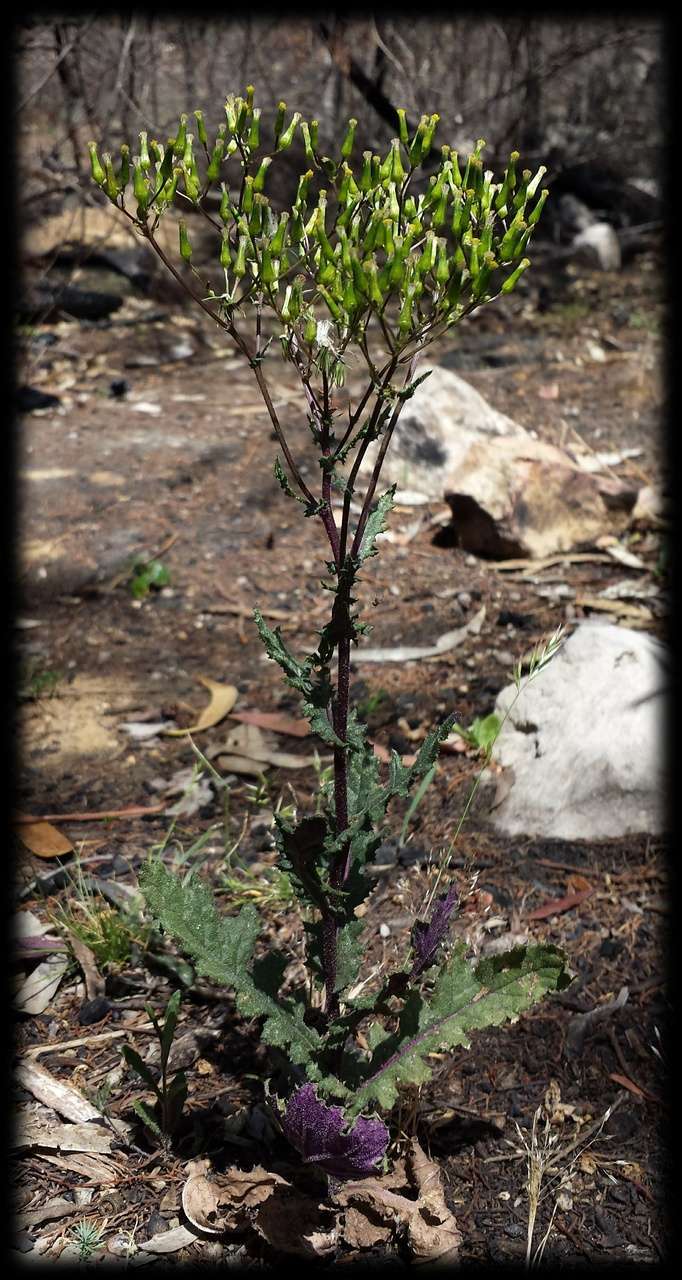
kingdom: Plantae
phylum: Tracheophyta
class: Magnoliopsida
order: Asterales
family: Asteraceae
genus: Senecio
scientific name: Senecio picridioides
